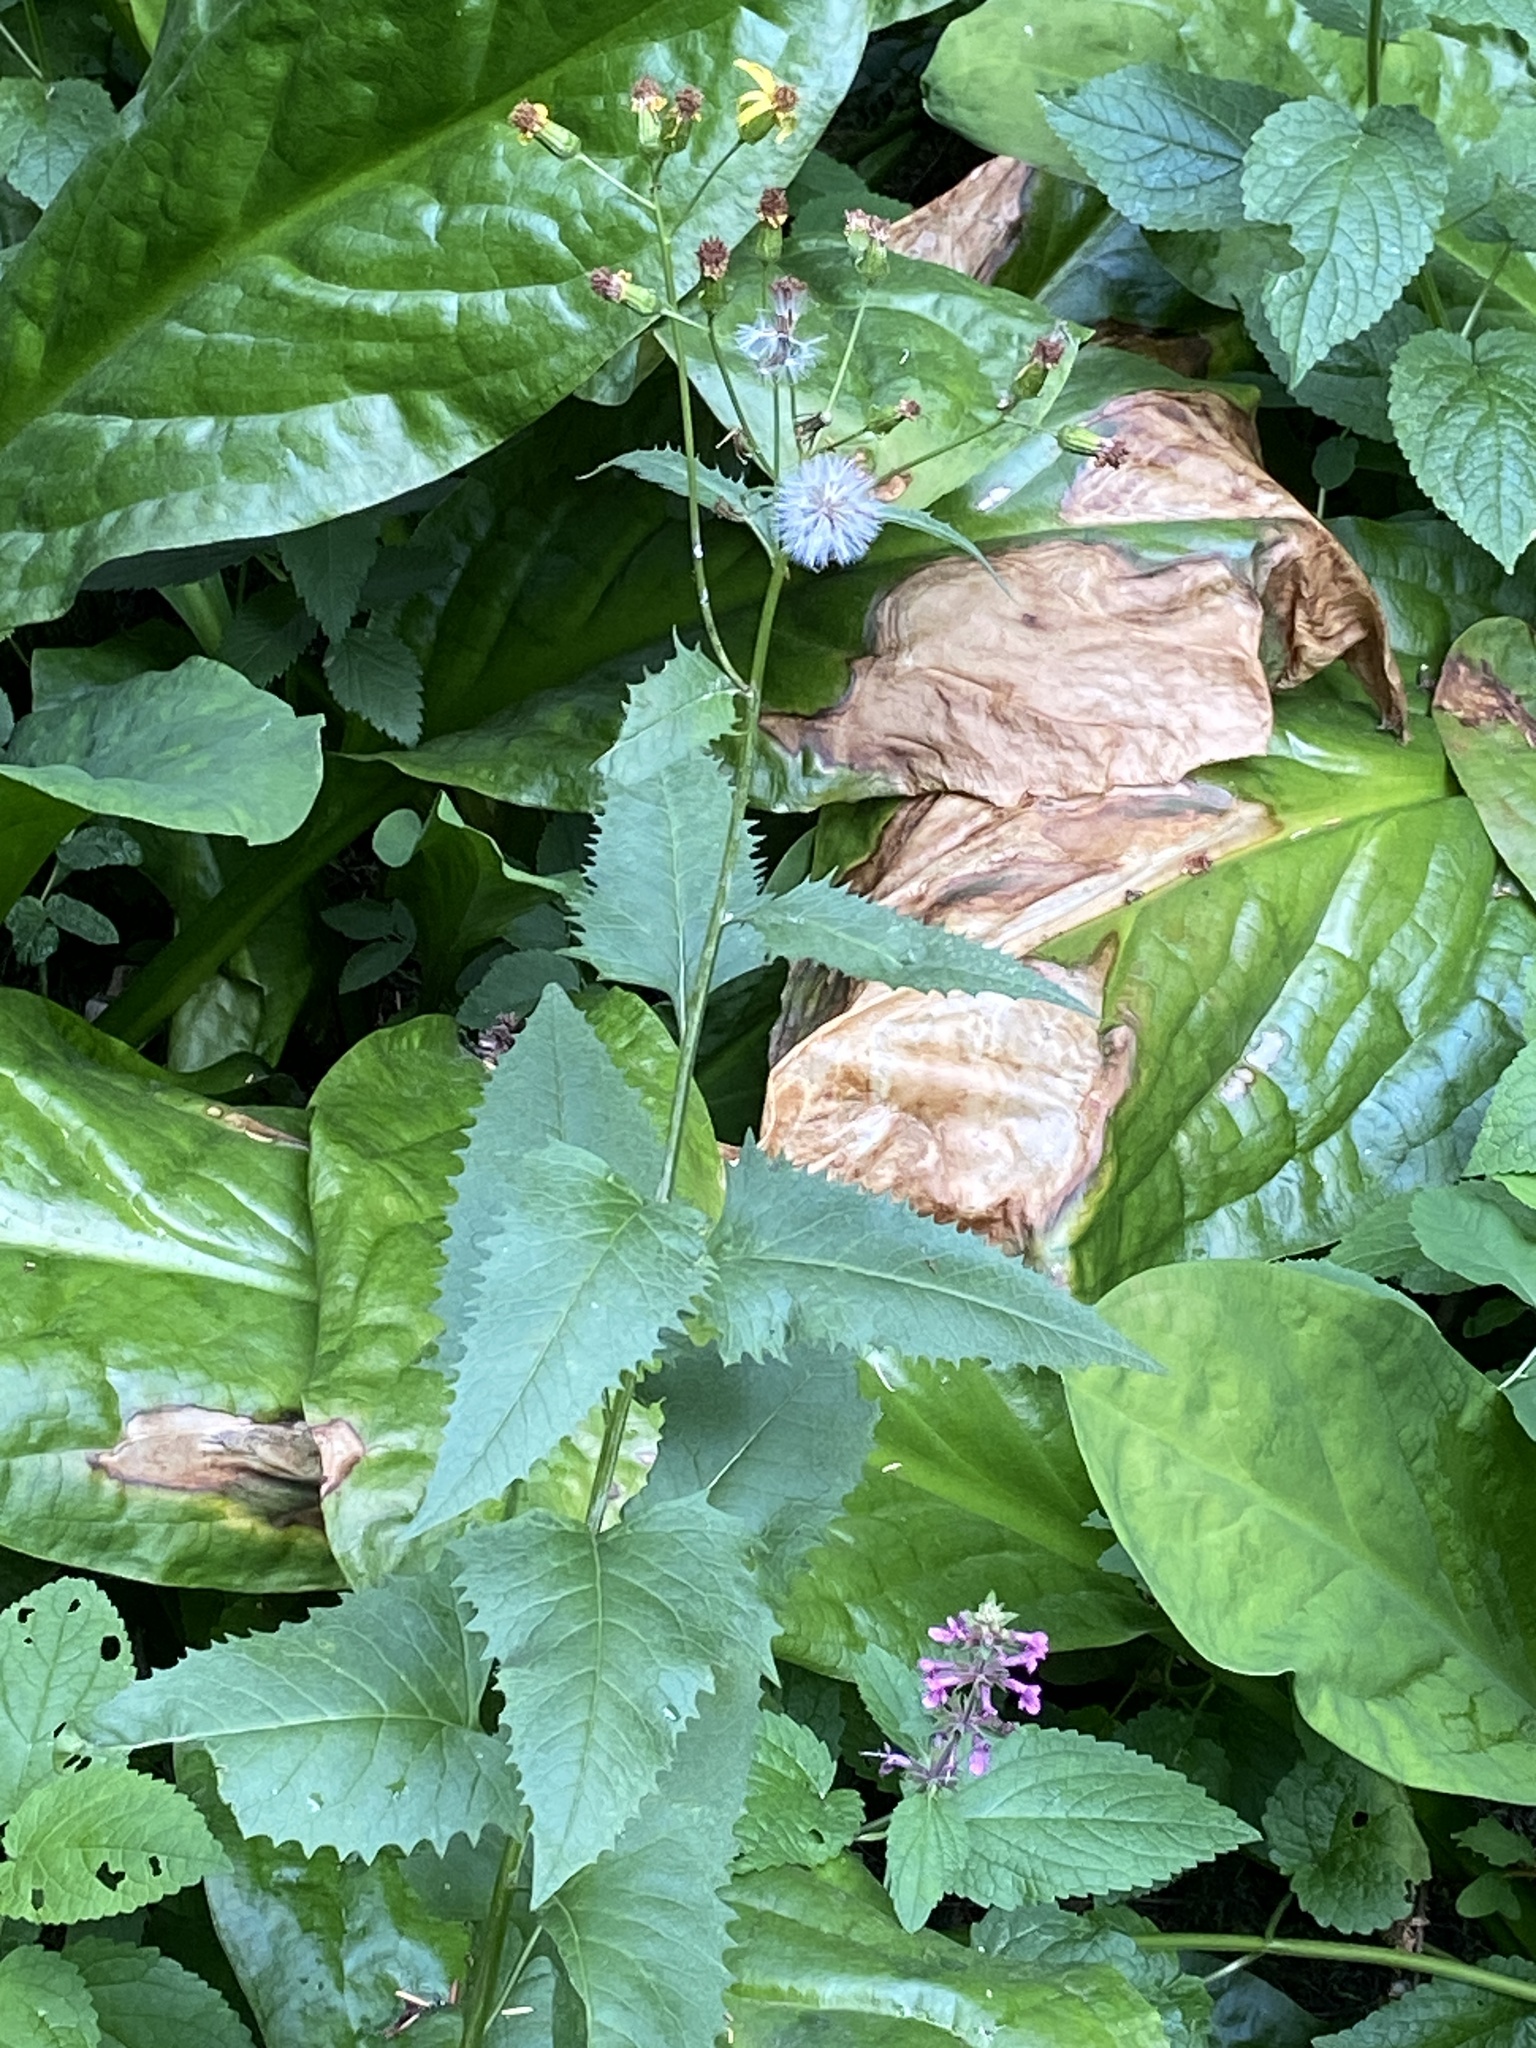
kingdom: Plantae
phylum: Tracheophyta
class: Magnoliopsida
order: Asterales
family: Asteraceae
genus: Senecio
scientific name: Senecio triangularis
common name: Arrowleaf butterweed
